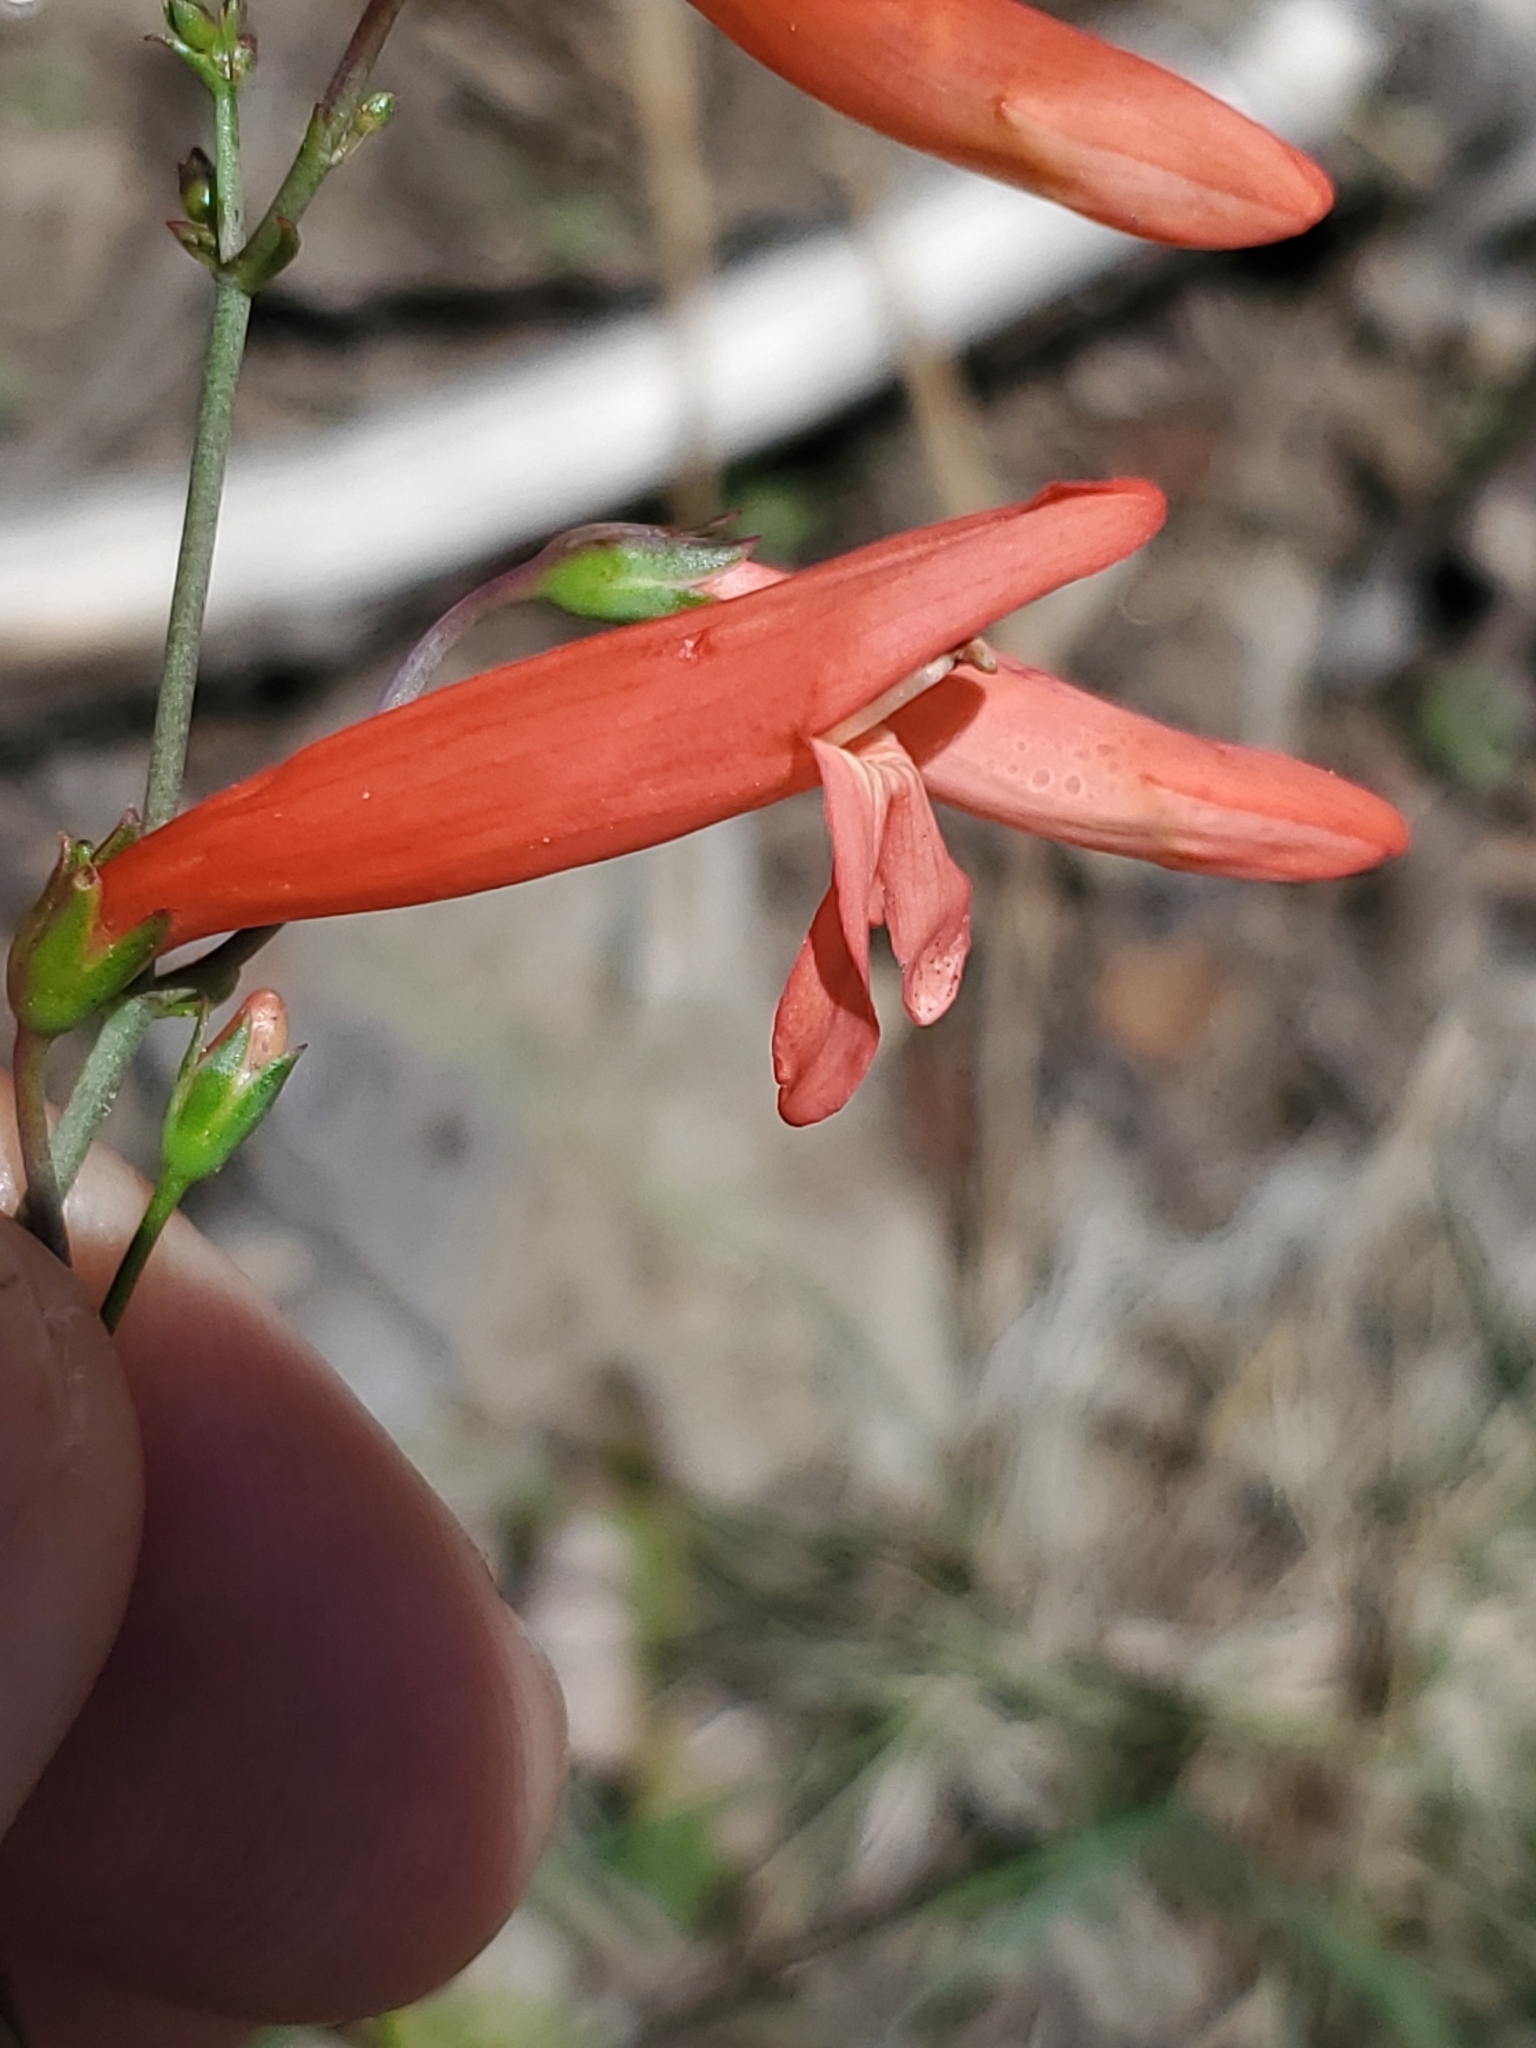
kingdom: Plantae
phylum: Tracheophyta
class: Magnoliopsida
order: Lamiales
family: Plantaginaceae
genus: Penstemon
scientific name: Penstemon barbatus
